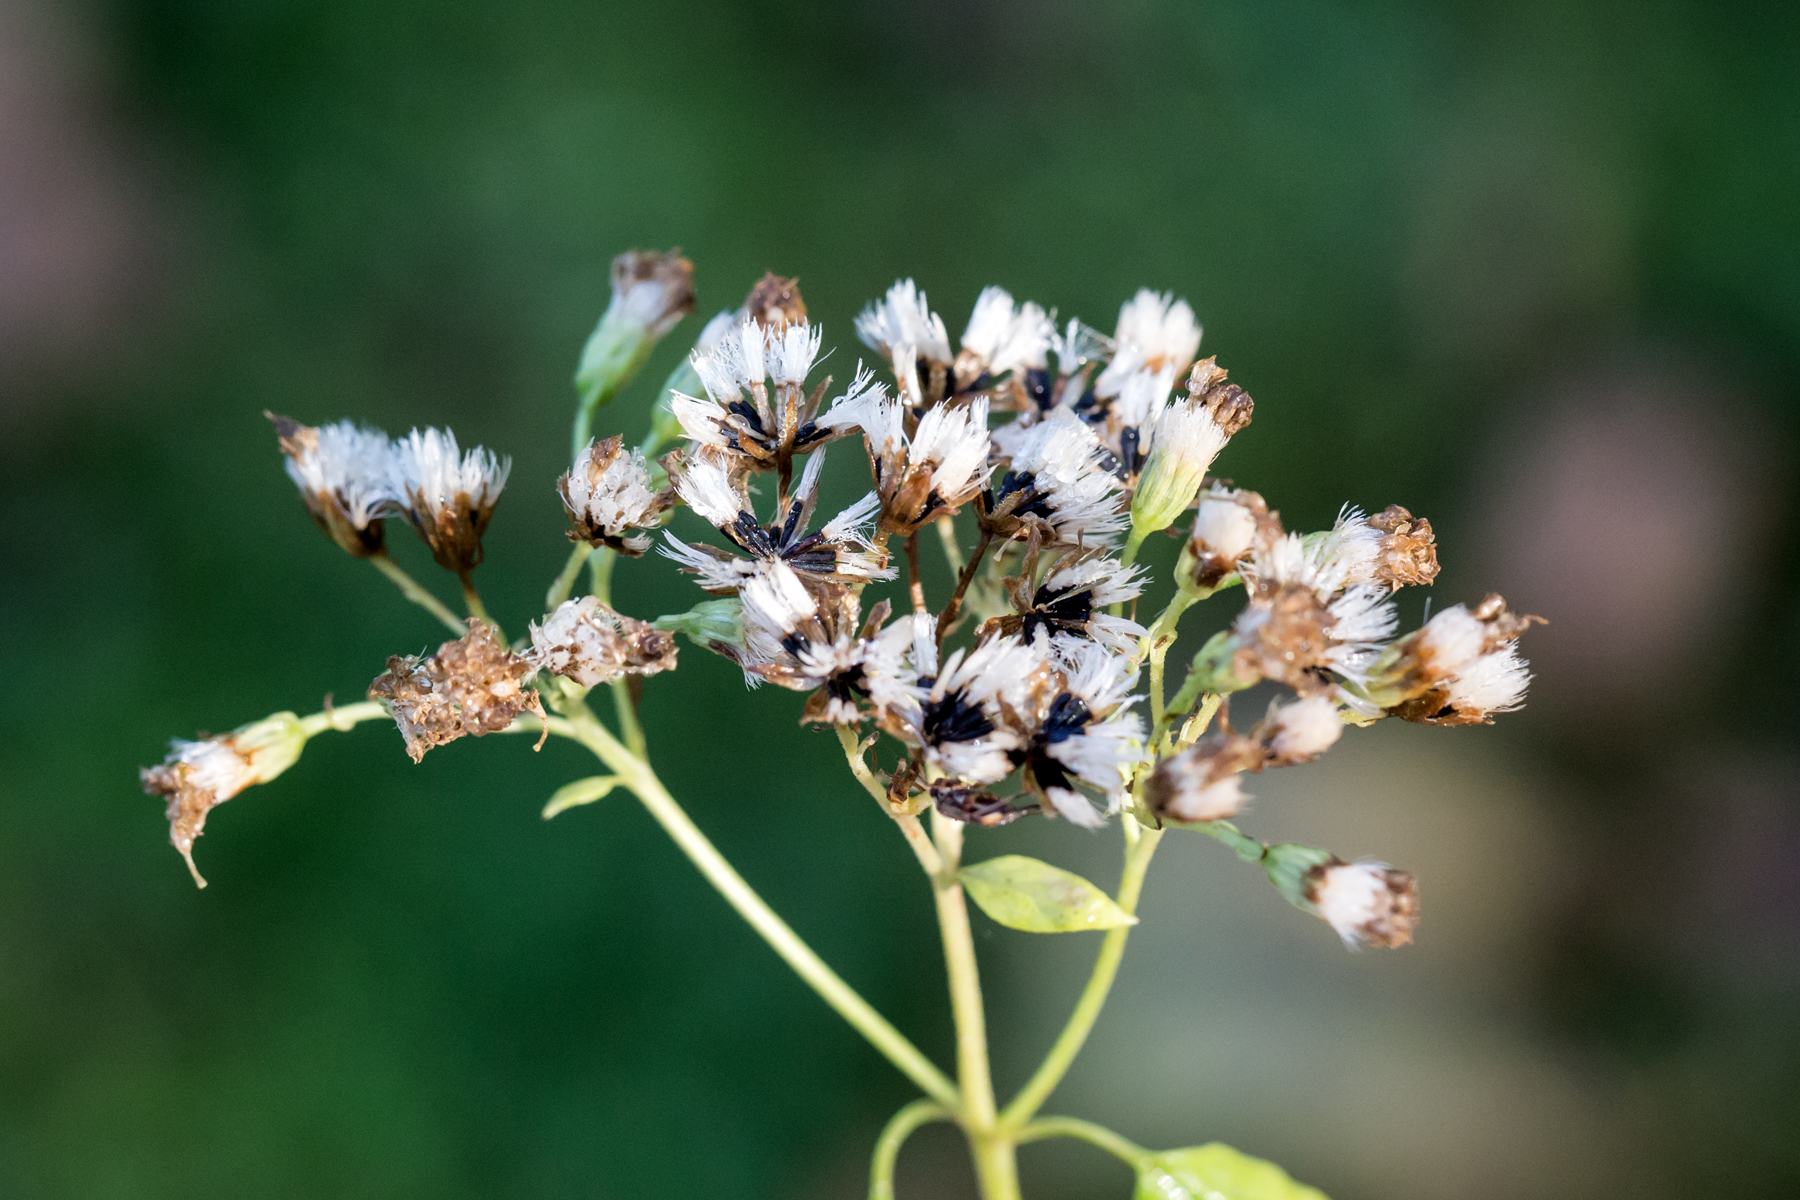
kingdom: Plantae
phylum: Tracheophyta
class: Magnoliopsida
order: Asterales
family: Asteraceae
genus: Ageratina
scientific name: Ageratina altissima
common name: White snakeroot
